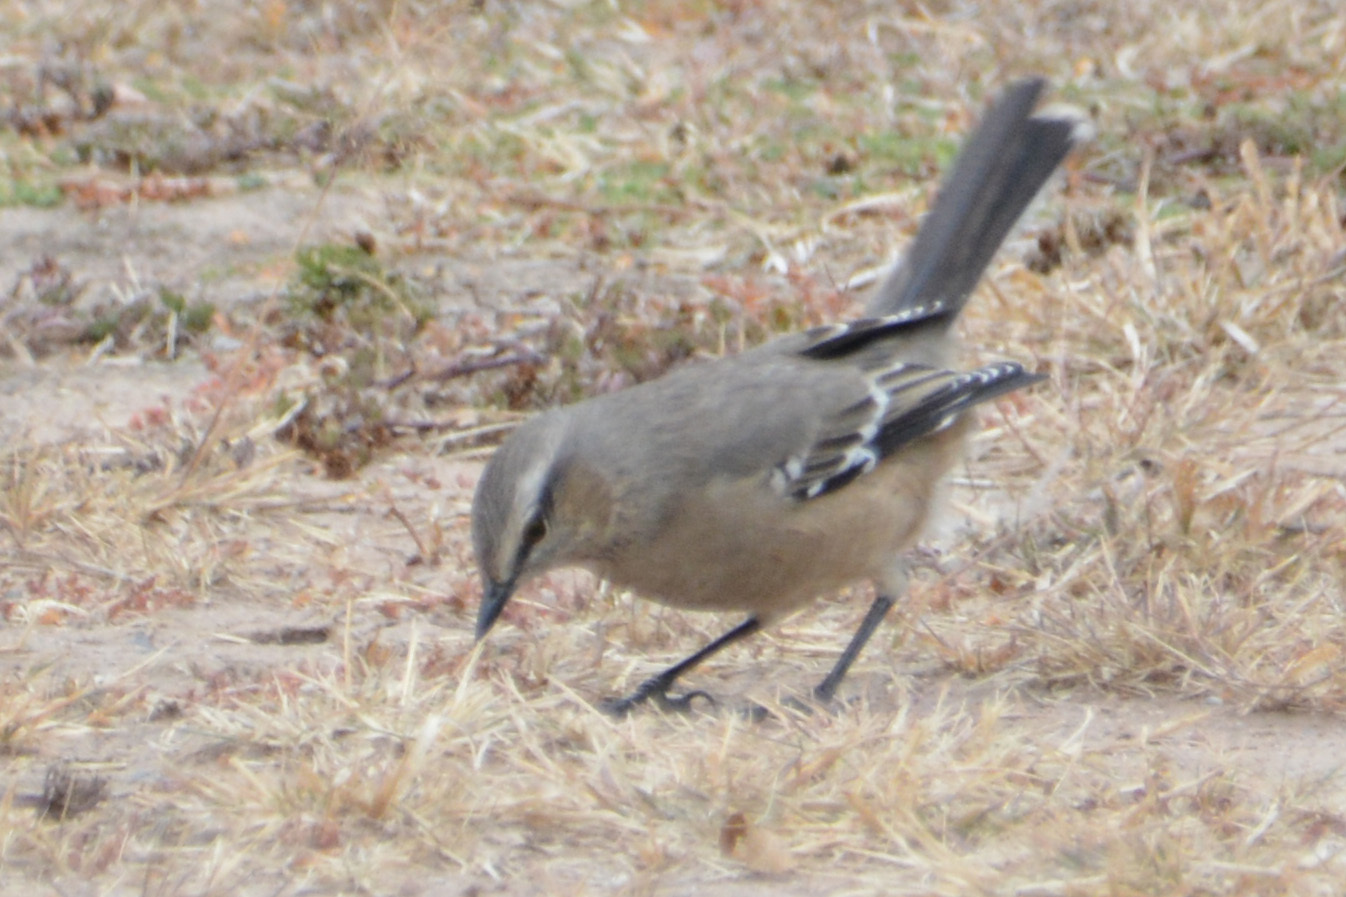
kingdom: Animalia
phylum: Chordata
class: Aves
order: Passeriformes
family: Mimidae
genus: Mimus
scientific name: Mimus patagonicus
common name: Patagonian mockingbird
